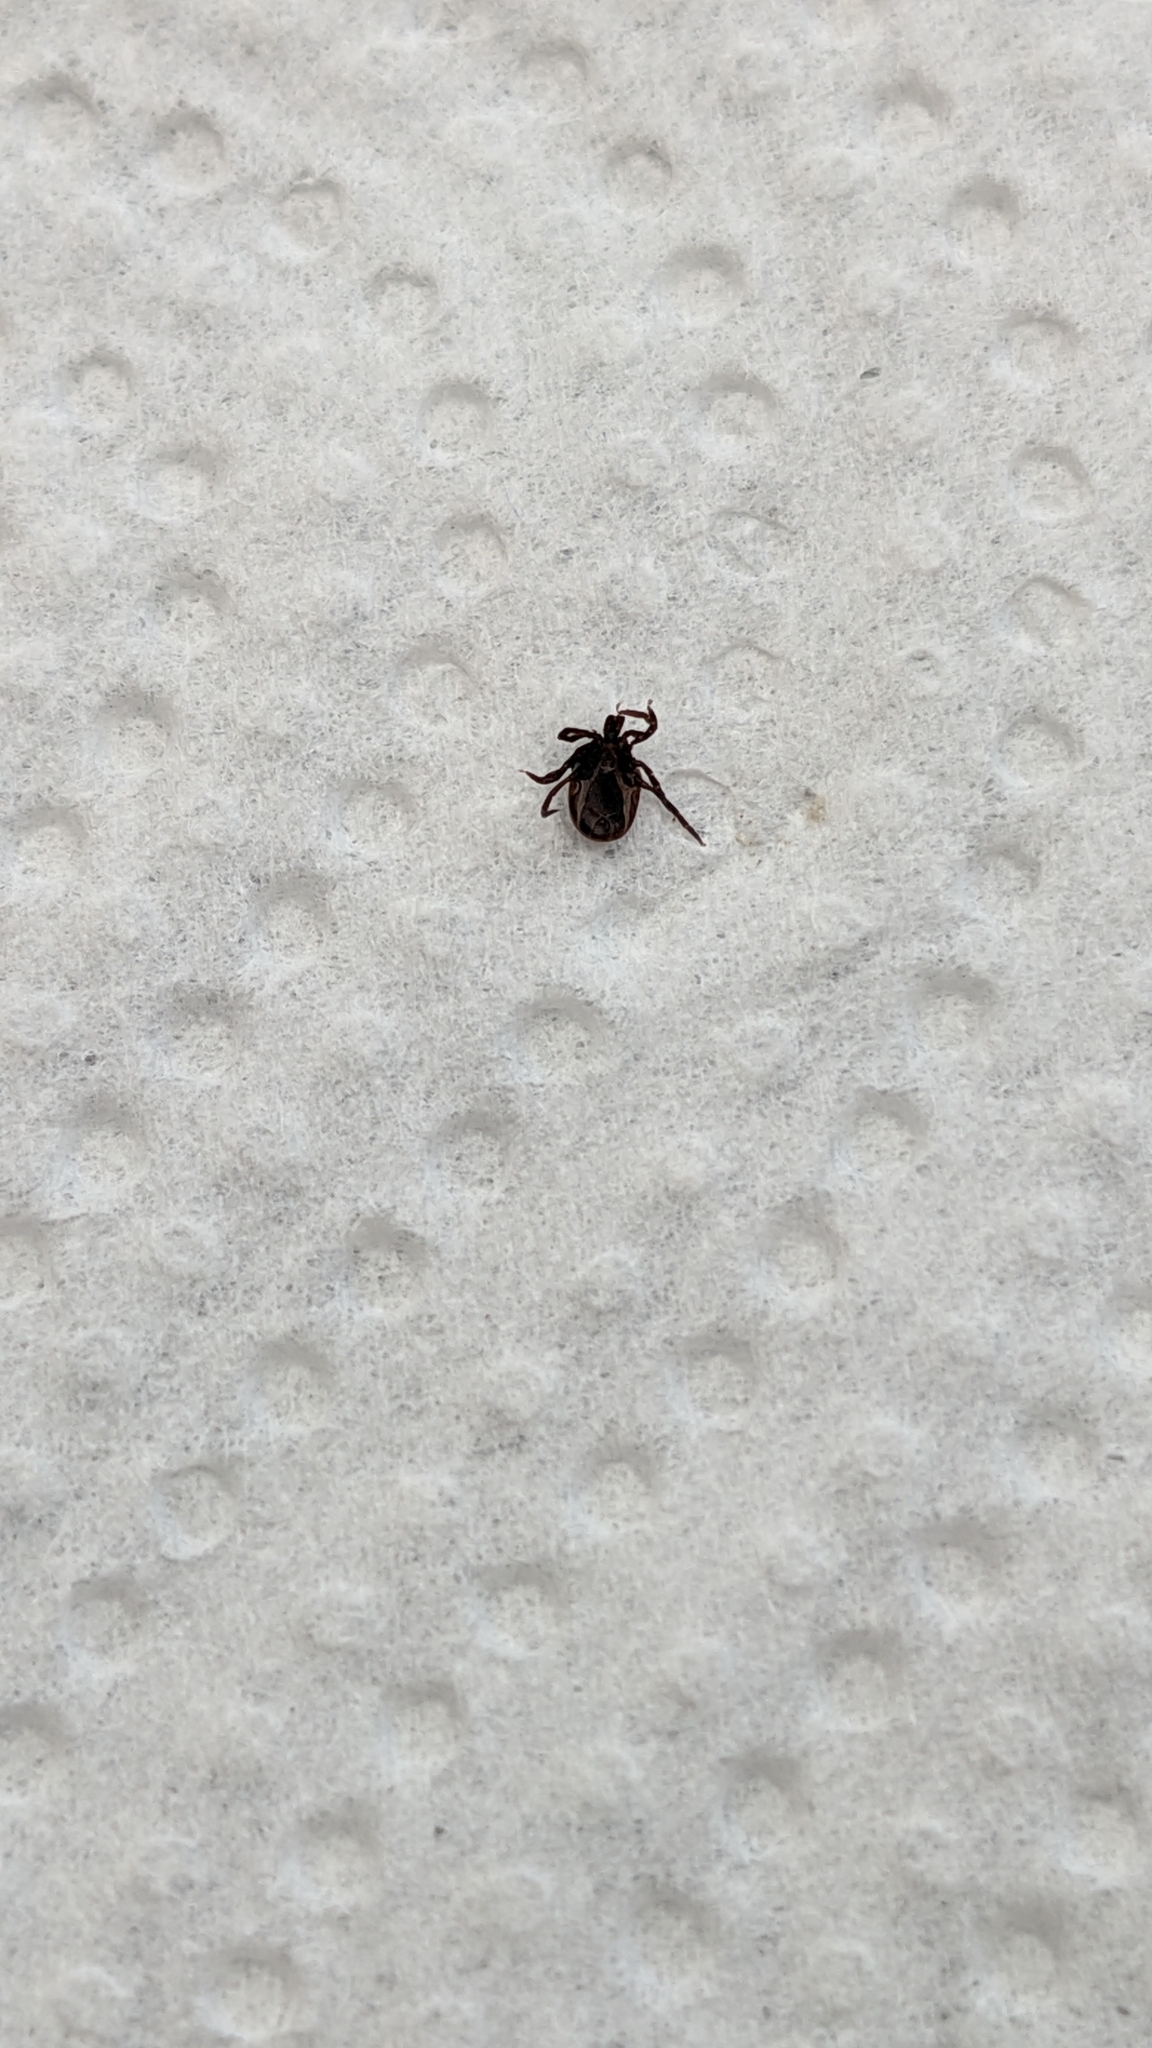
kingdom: Animalia
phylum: Arthropoda
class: Arachnida
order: Ixodida
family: Ixodidae
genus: Ixodes
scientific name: Ixodes ricinus
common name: Castor bean tick
